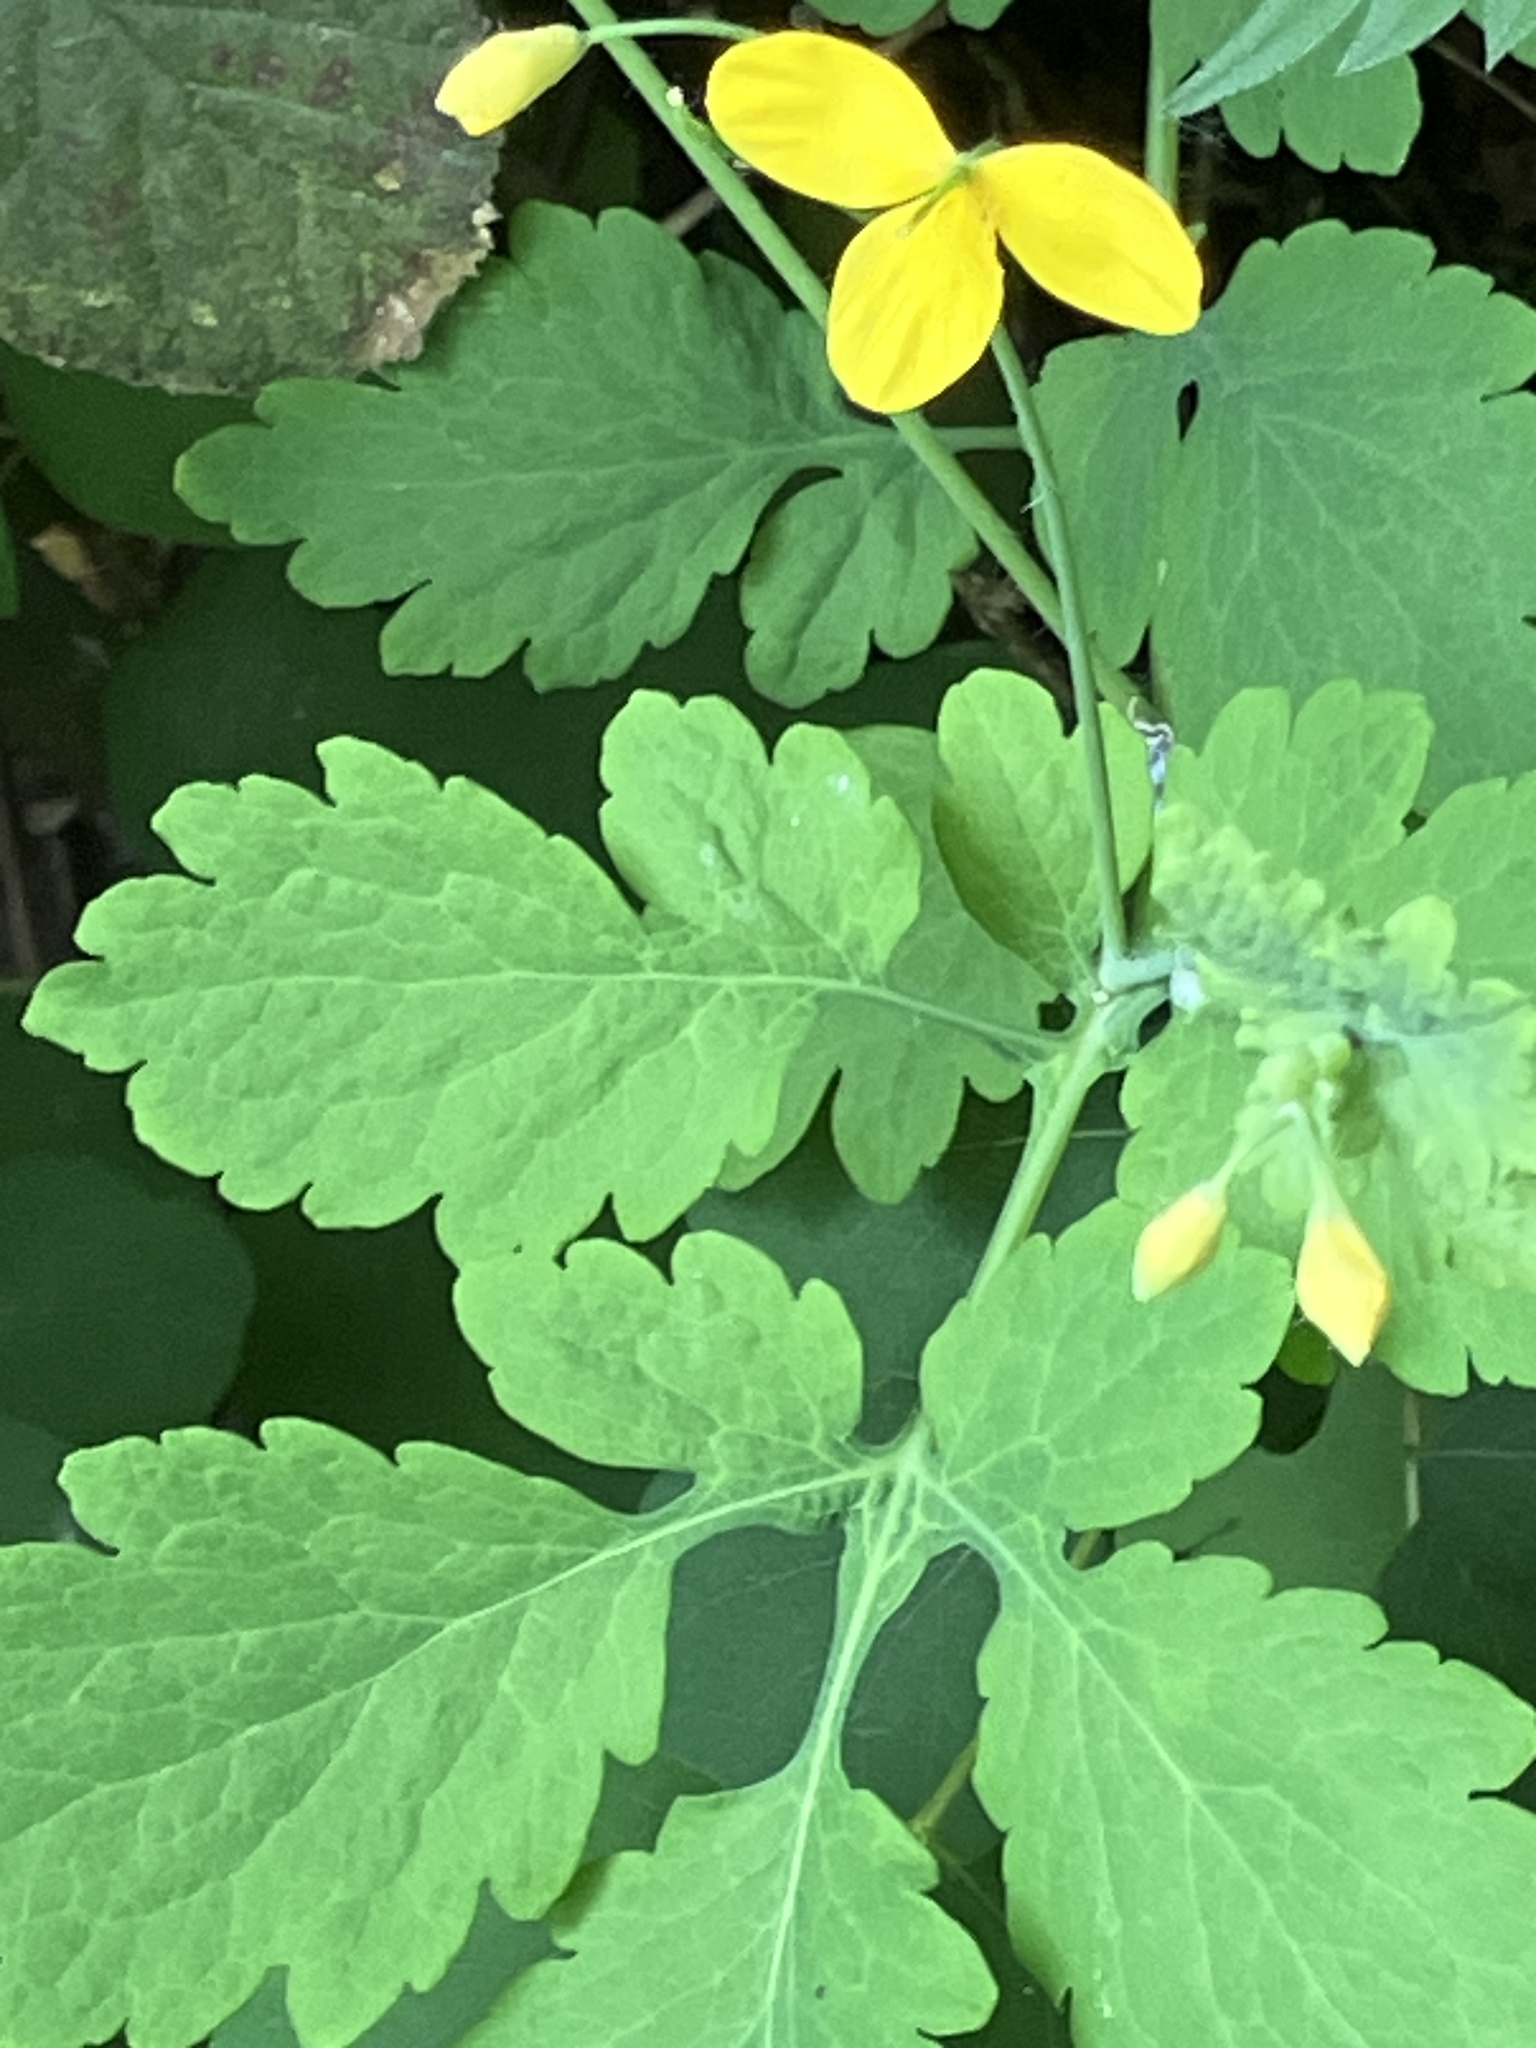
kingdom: Plantae
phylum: Tracheophyta
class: Magnoliopsida
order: Ranunculales
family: Papaveraceae
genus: Chelidonium
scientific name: Chelidonium majus
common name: Greater celandine
